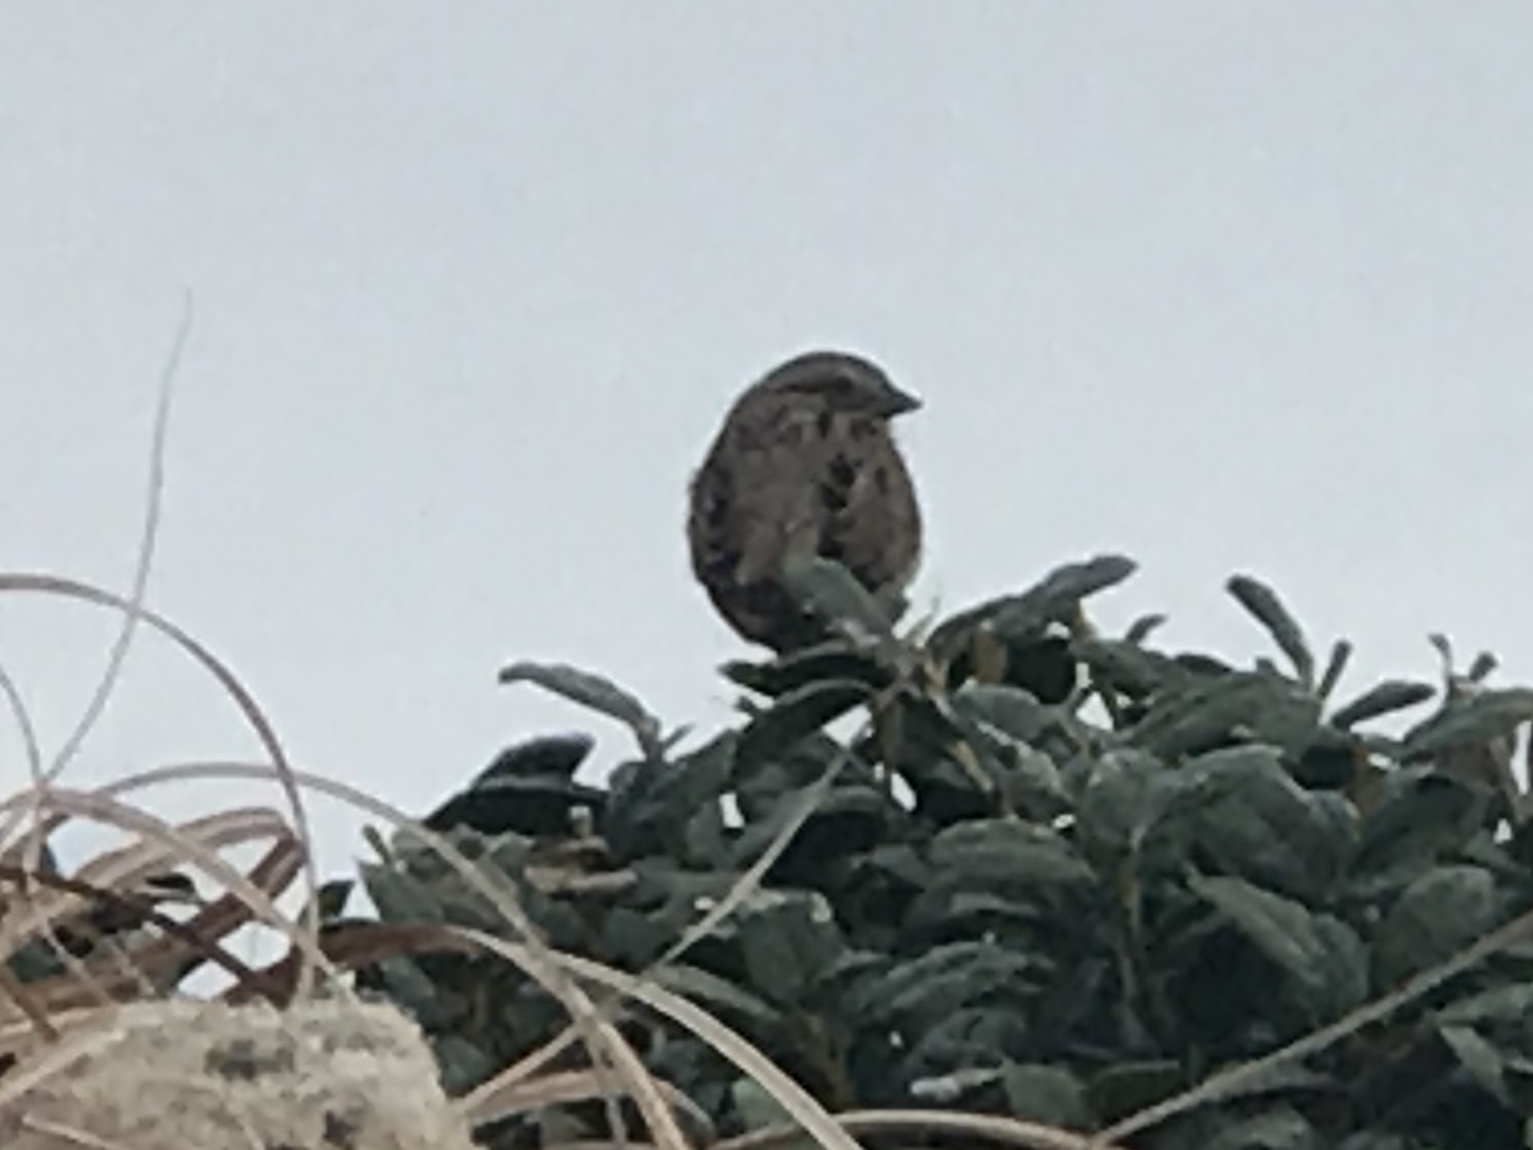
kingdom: Animalia
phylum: Chordata
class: Aves
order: Passeriformes
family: Passerellidae
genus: Melospiza
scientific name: Melospiza melodia
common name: Song sparrow
